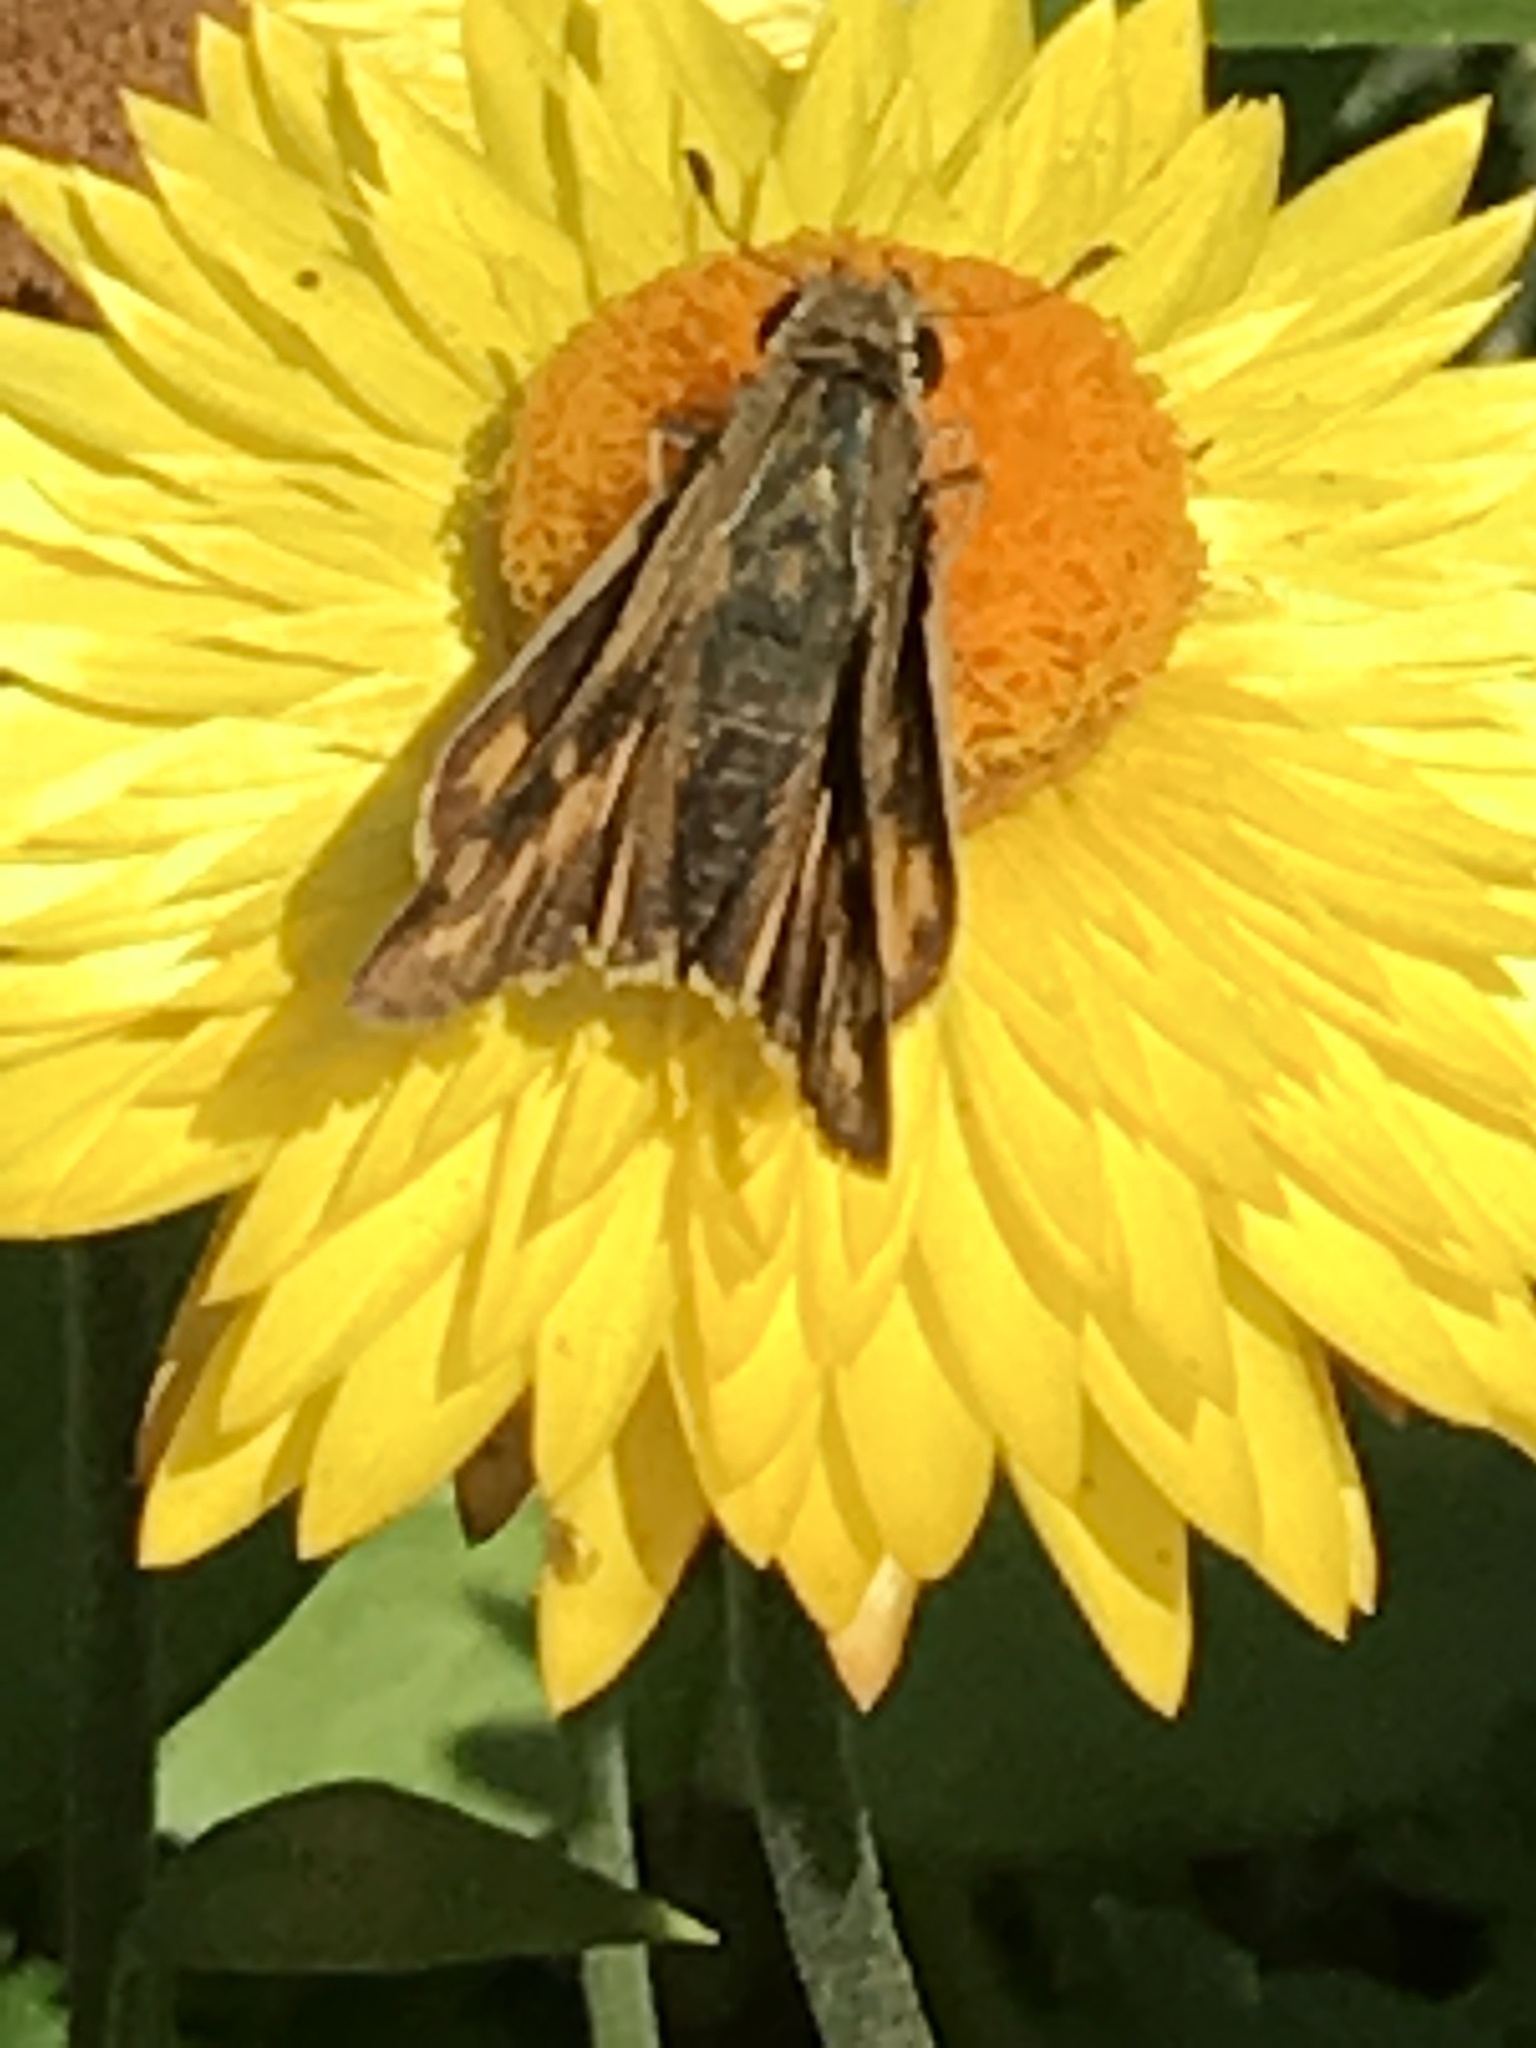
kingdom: Animalia
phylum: Arthropoda
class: Insecta
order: Lepidoptera
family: Hesperiidae
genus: Hylephila
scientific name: Hylephila phyleus
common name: Fiery skipper
